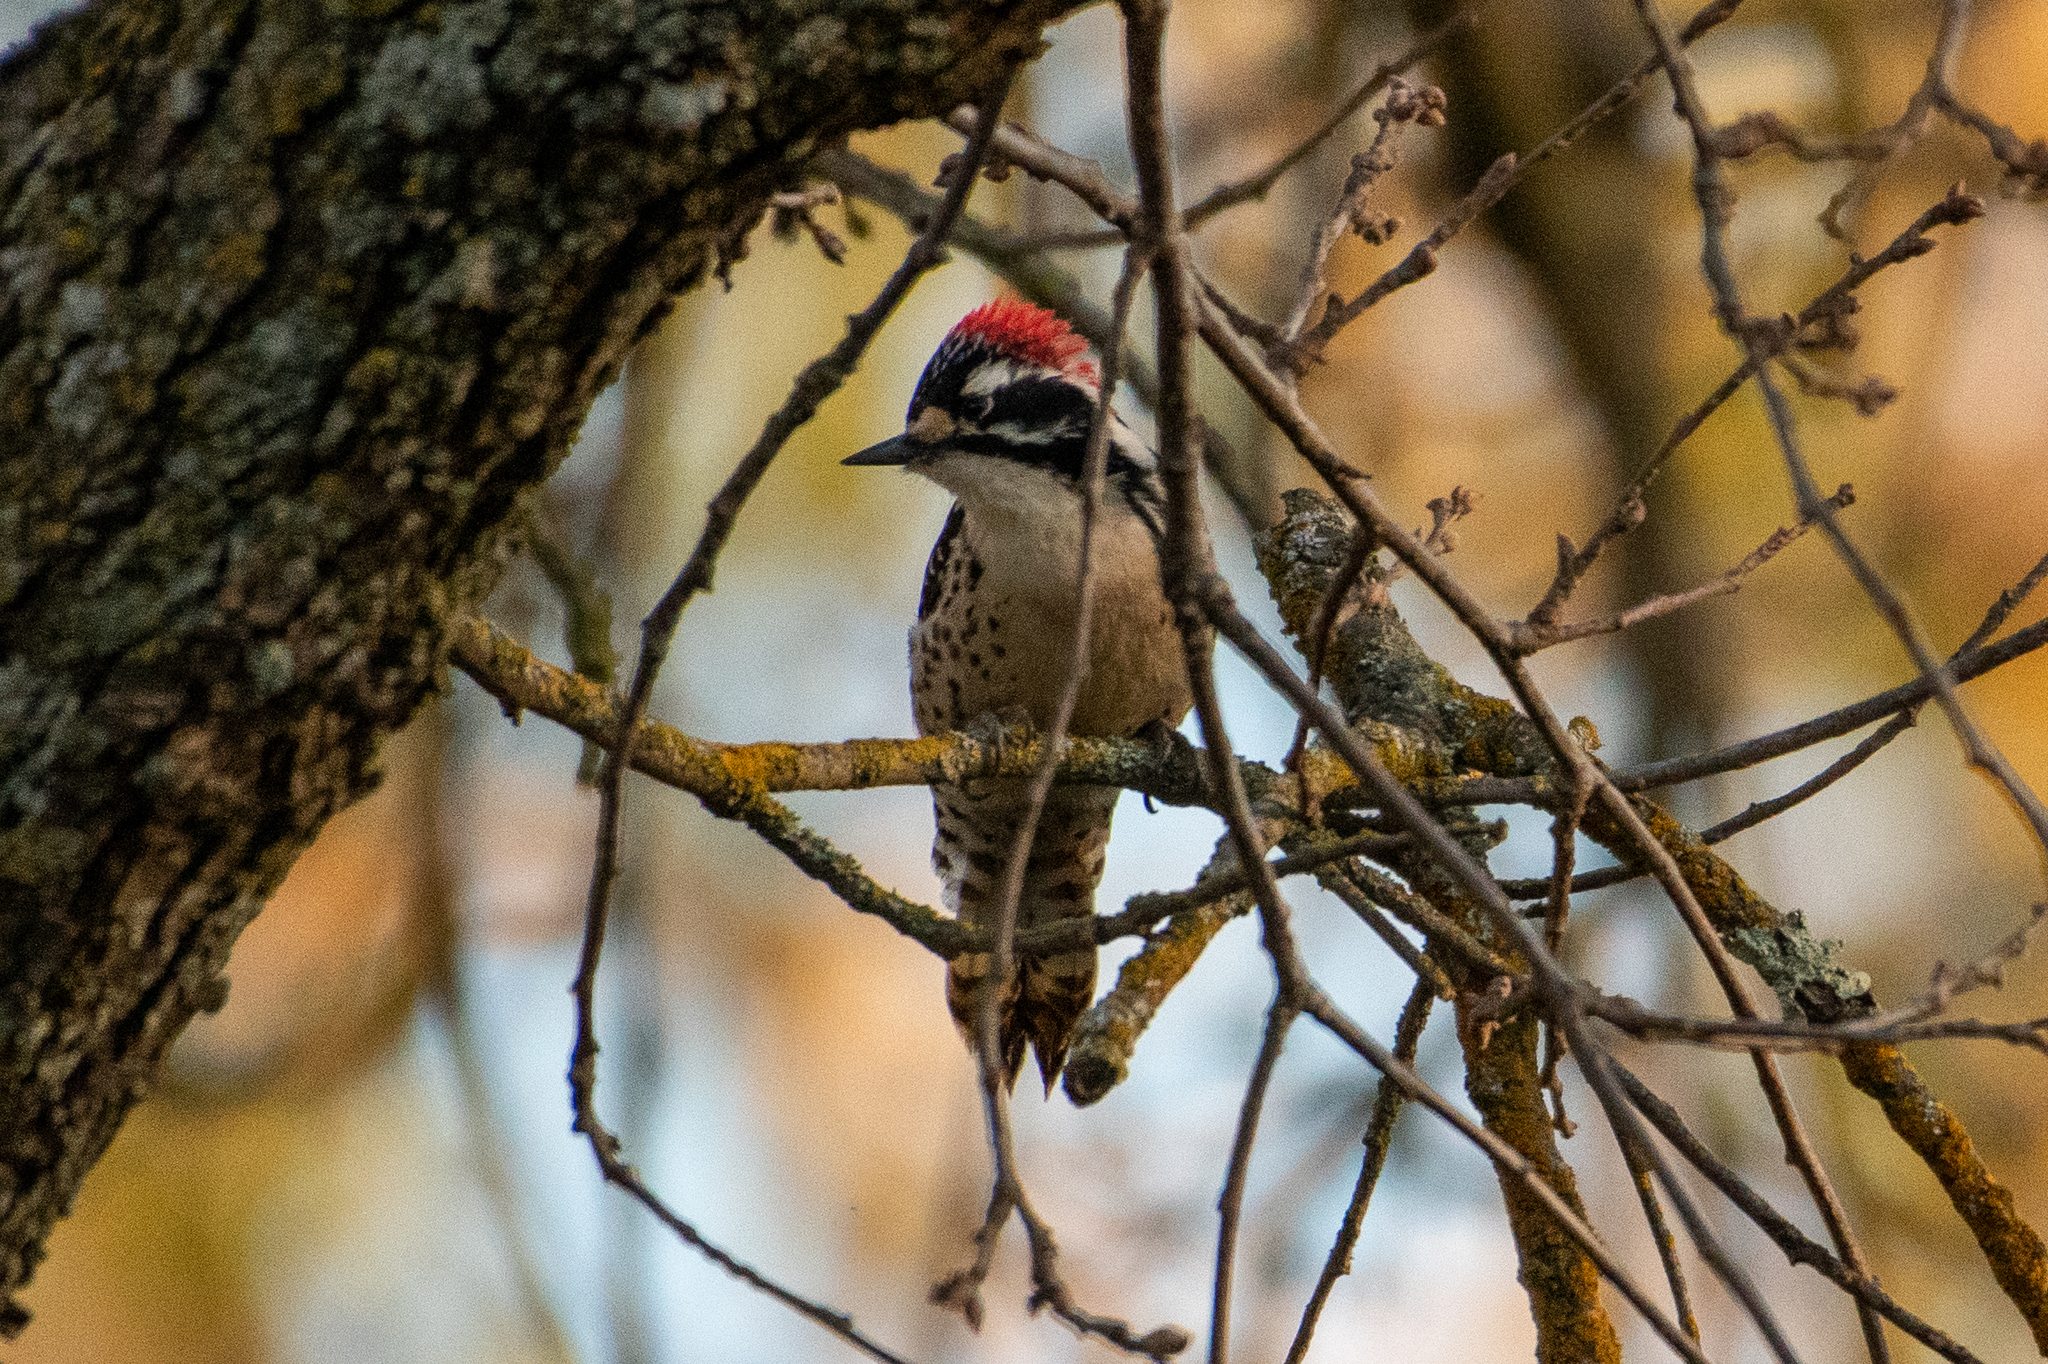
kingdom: Animalia
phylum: Chordata
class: Aves
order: Piciformes
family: Picidae
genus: Dryobates
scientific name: Dryobates nuttallii
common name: Nuttall's woodpecker
